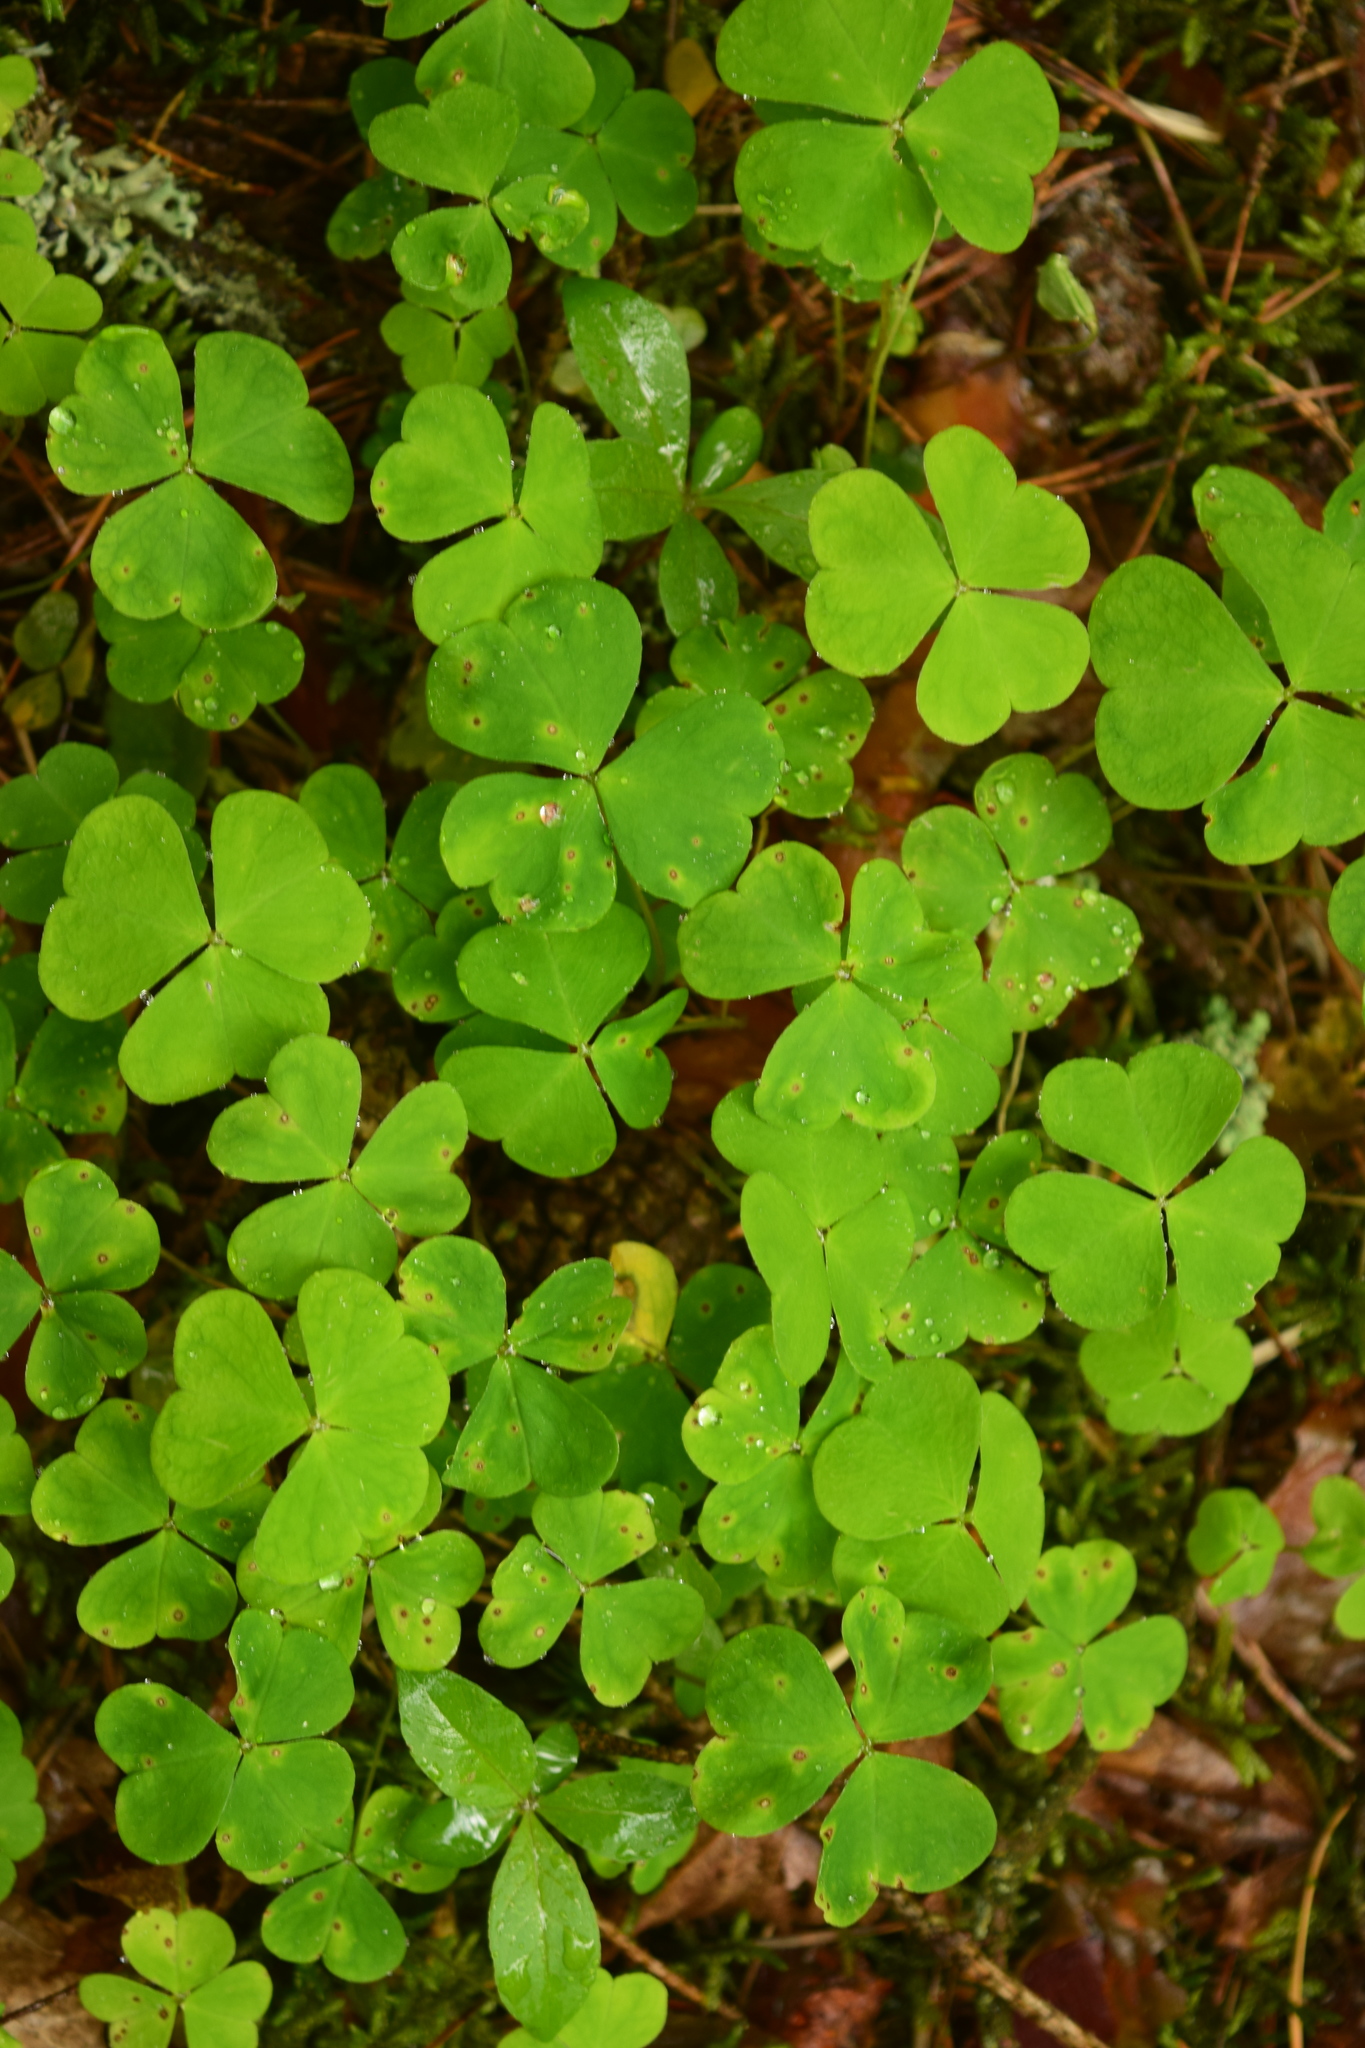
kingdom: Plantae
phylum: Tracheophyta
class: Magnoliopsida
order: Oxalidales
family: Oxalidaceae
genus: Oxalis
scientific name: Oxalis acetosella
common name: Wood-sorrel
